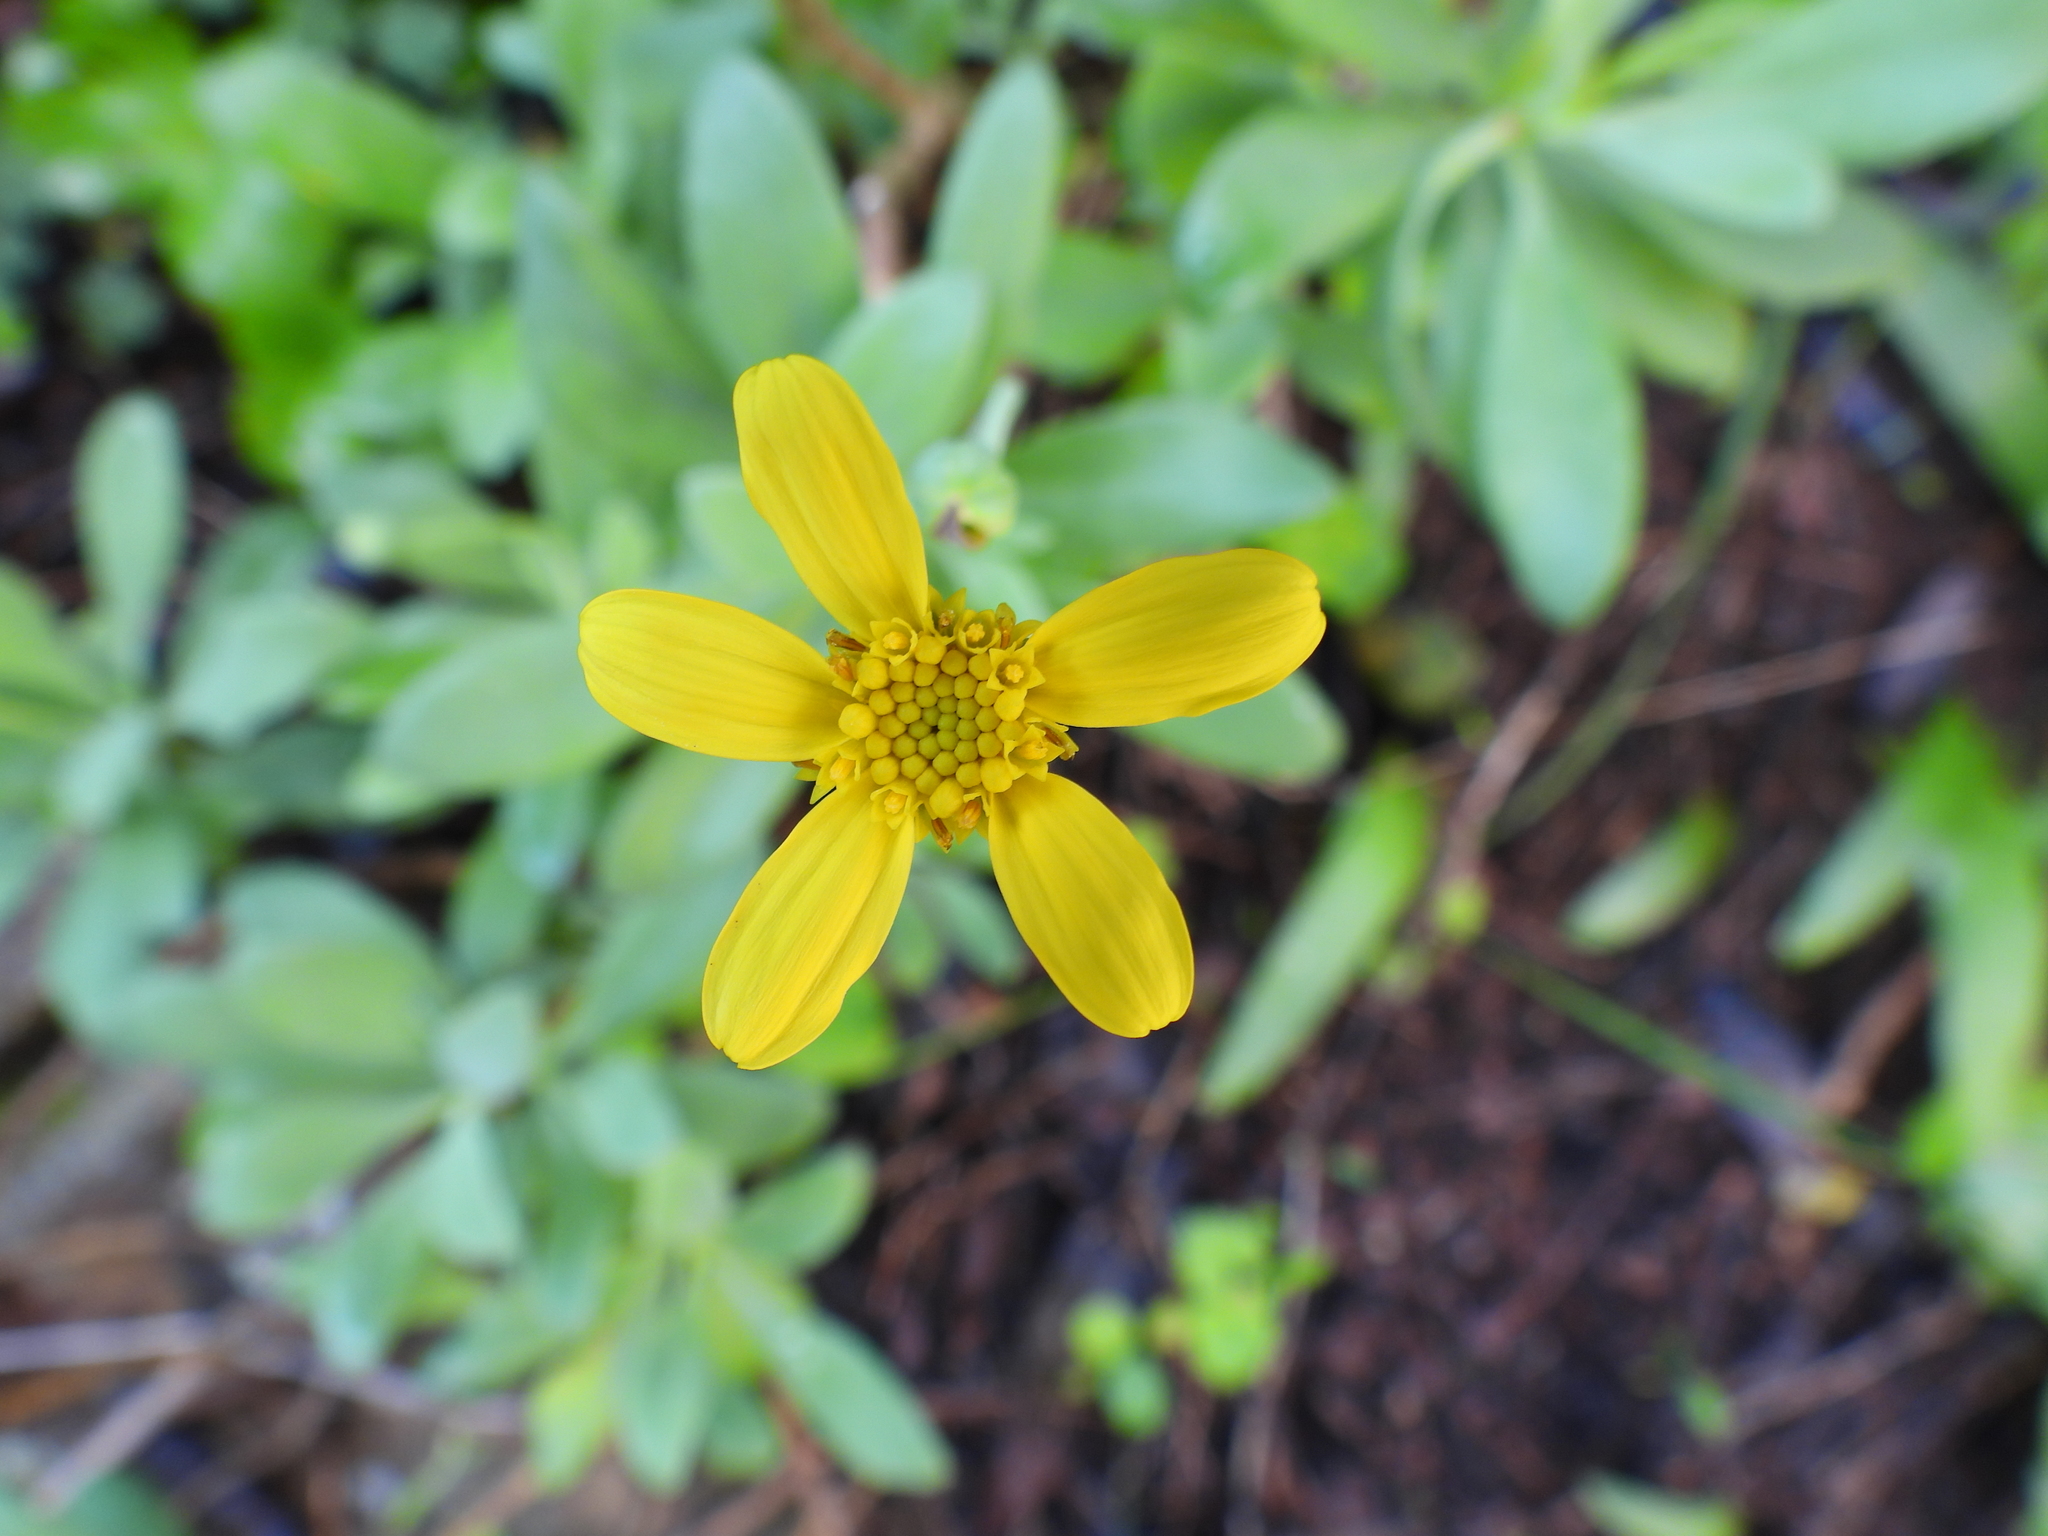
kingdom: Plantae
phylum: Tracheophyta
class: Magnoliopsida
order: Asterales
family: Asteraceae
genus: Othonna
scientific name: Othonna arborescens
